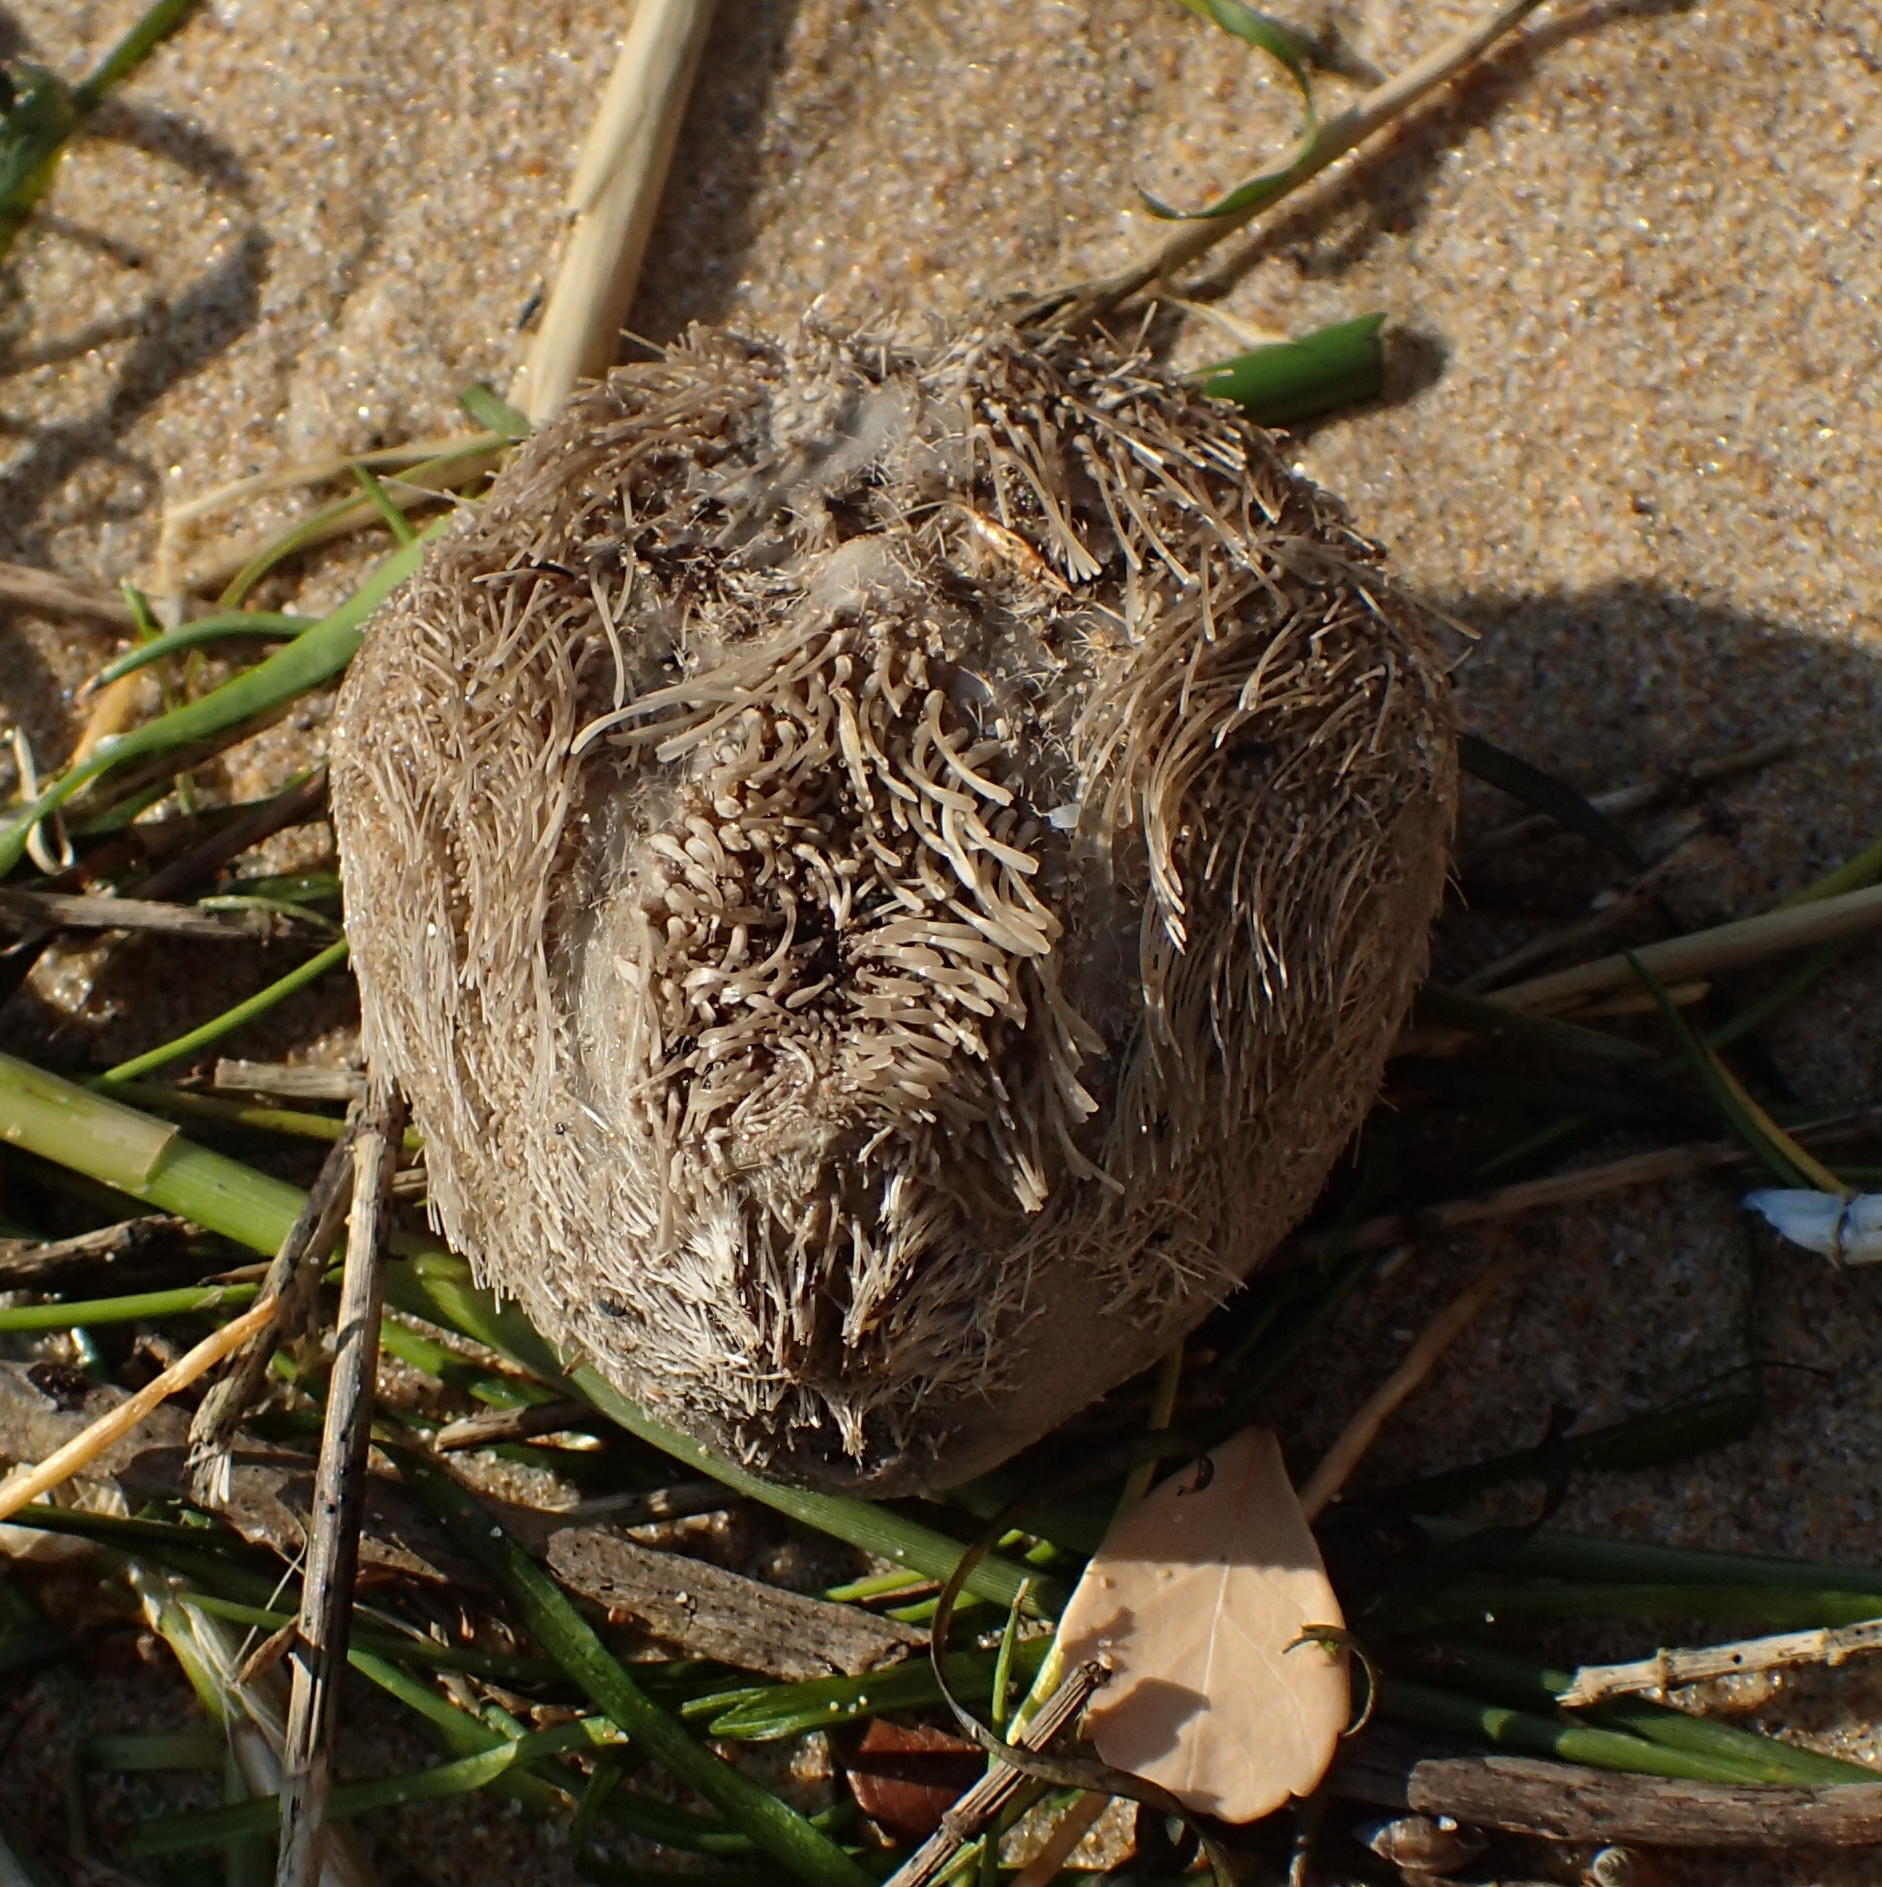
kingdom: Animalia
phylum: Echinodermata
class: Echinoidea
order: Spatangoida
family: Loveniidae
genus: Echinocardium
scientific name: Echinocardium cordatum
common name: Heart-urchin
